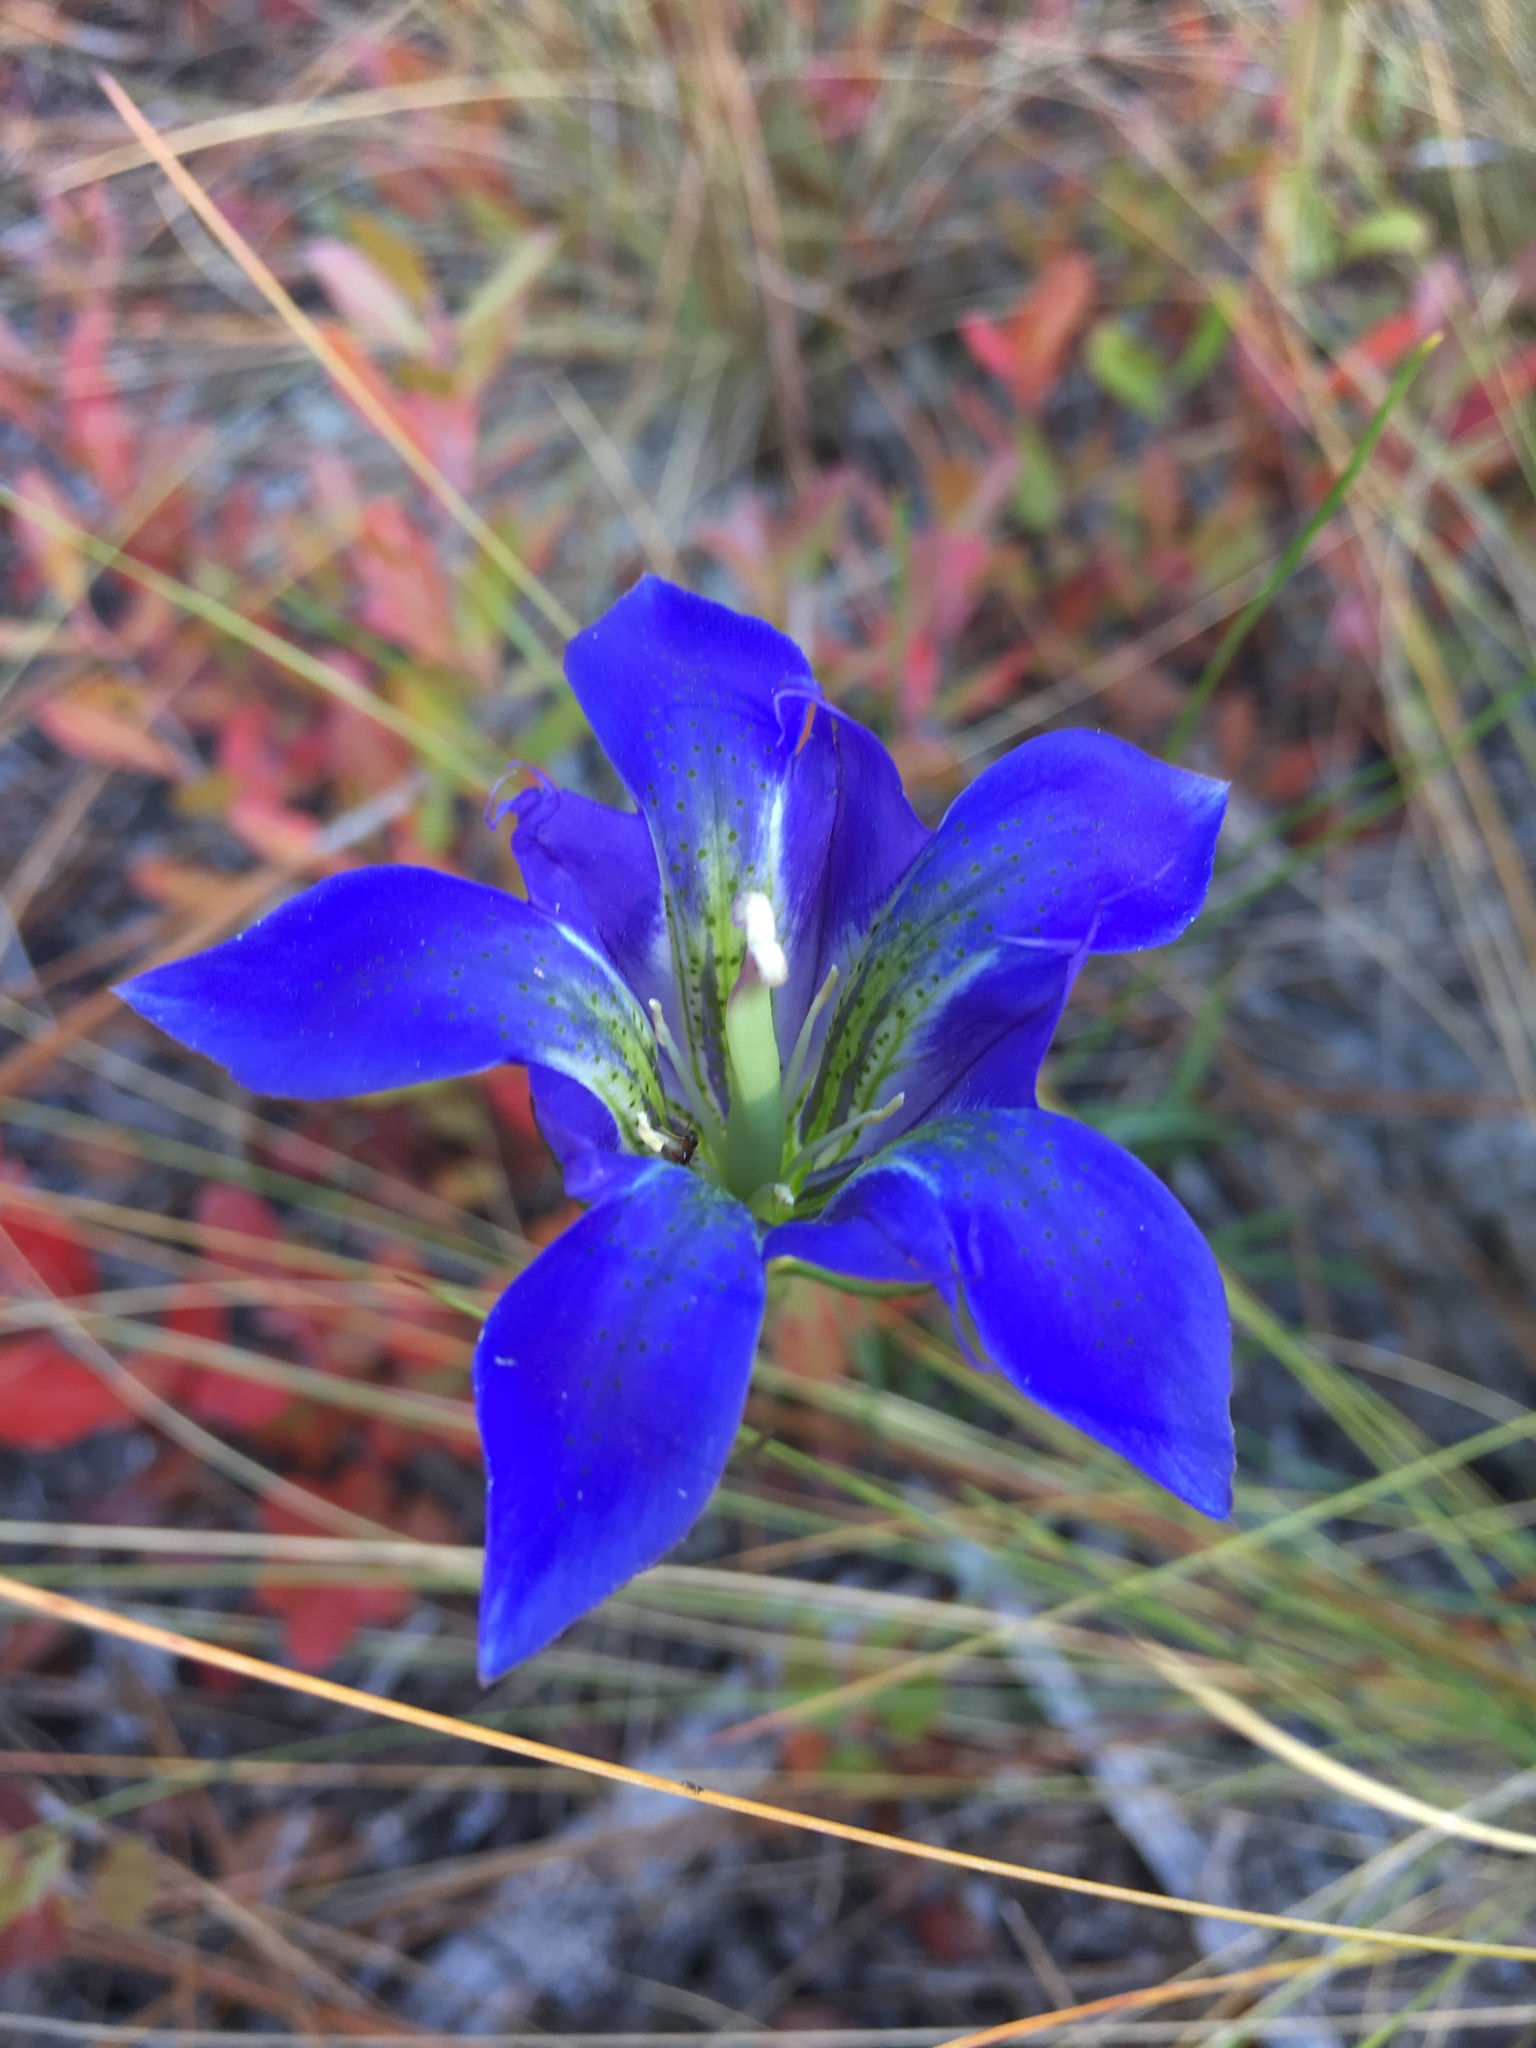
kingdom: Plantae
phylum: Tracheophyta
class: Magnoliopsida
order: Gentianales
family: Gentianaceae
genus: Gentiana
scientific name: Gentiana autumnalis
